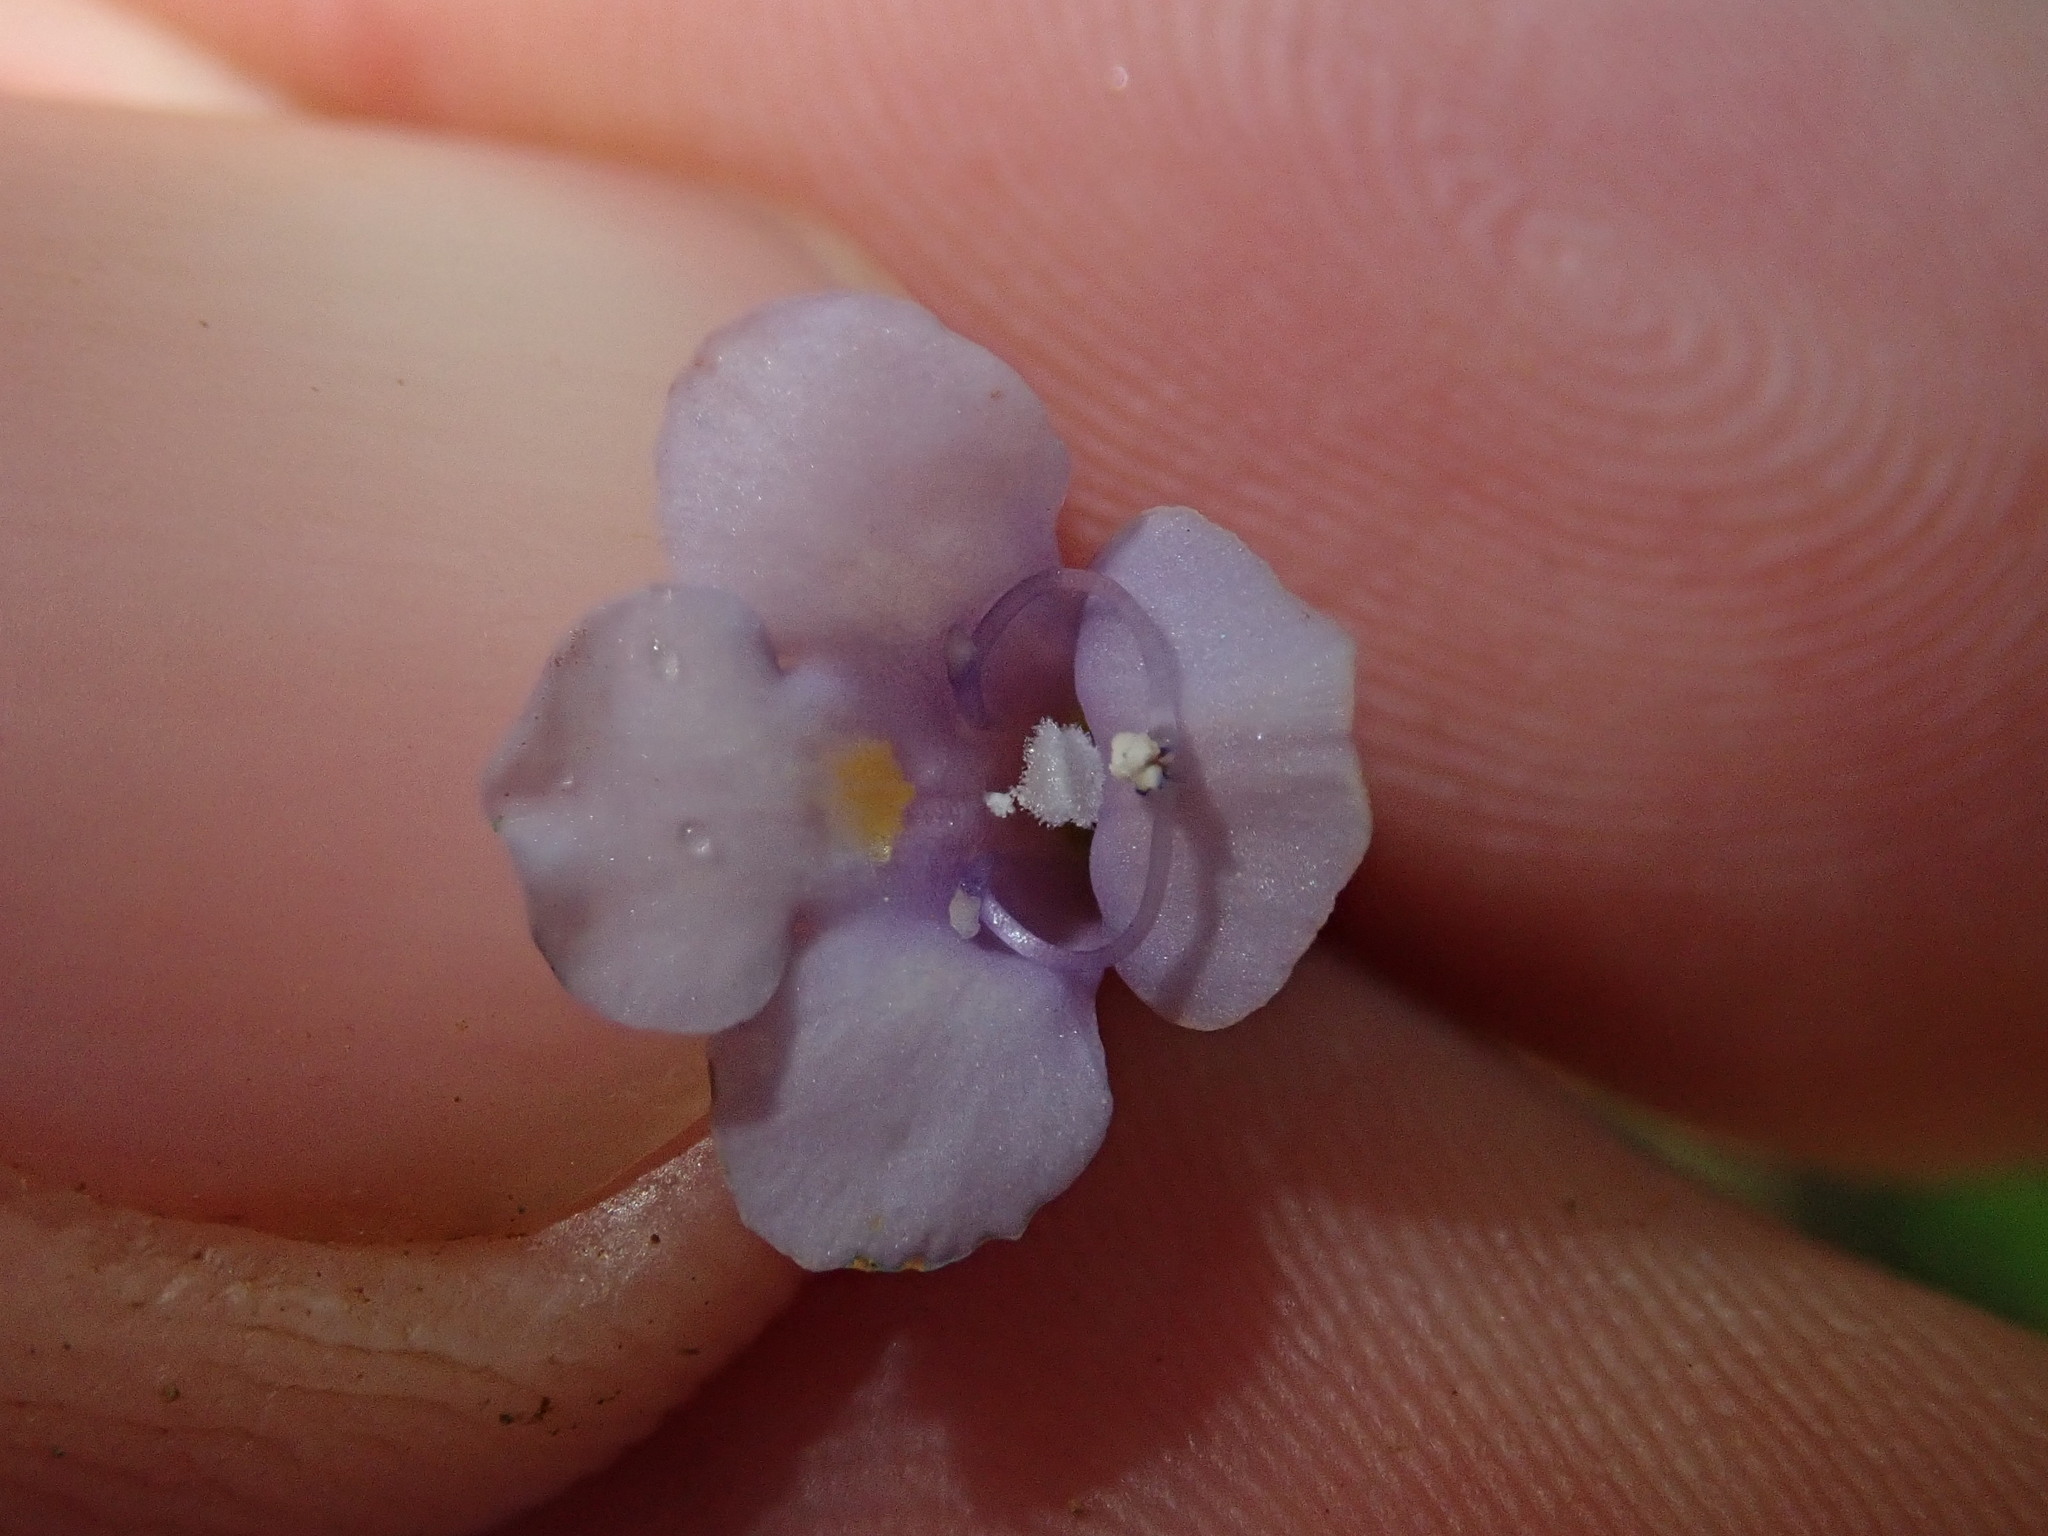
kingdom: Plantae
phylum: Tracheophyta
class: Magnoliopsida
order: Lamiales
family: Linderniaceae
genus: Torenia
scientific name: Torenia anagallis
